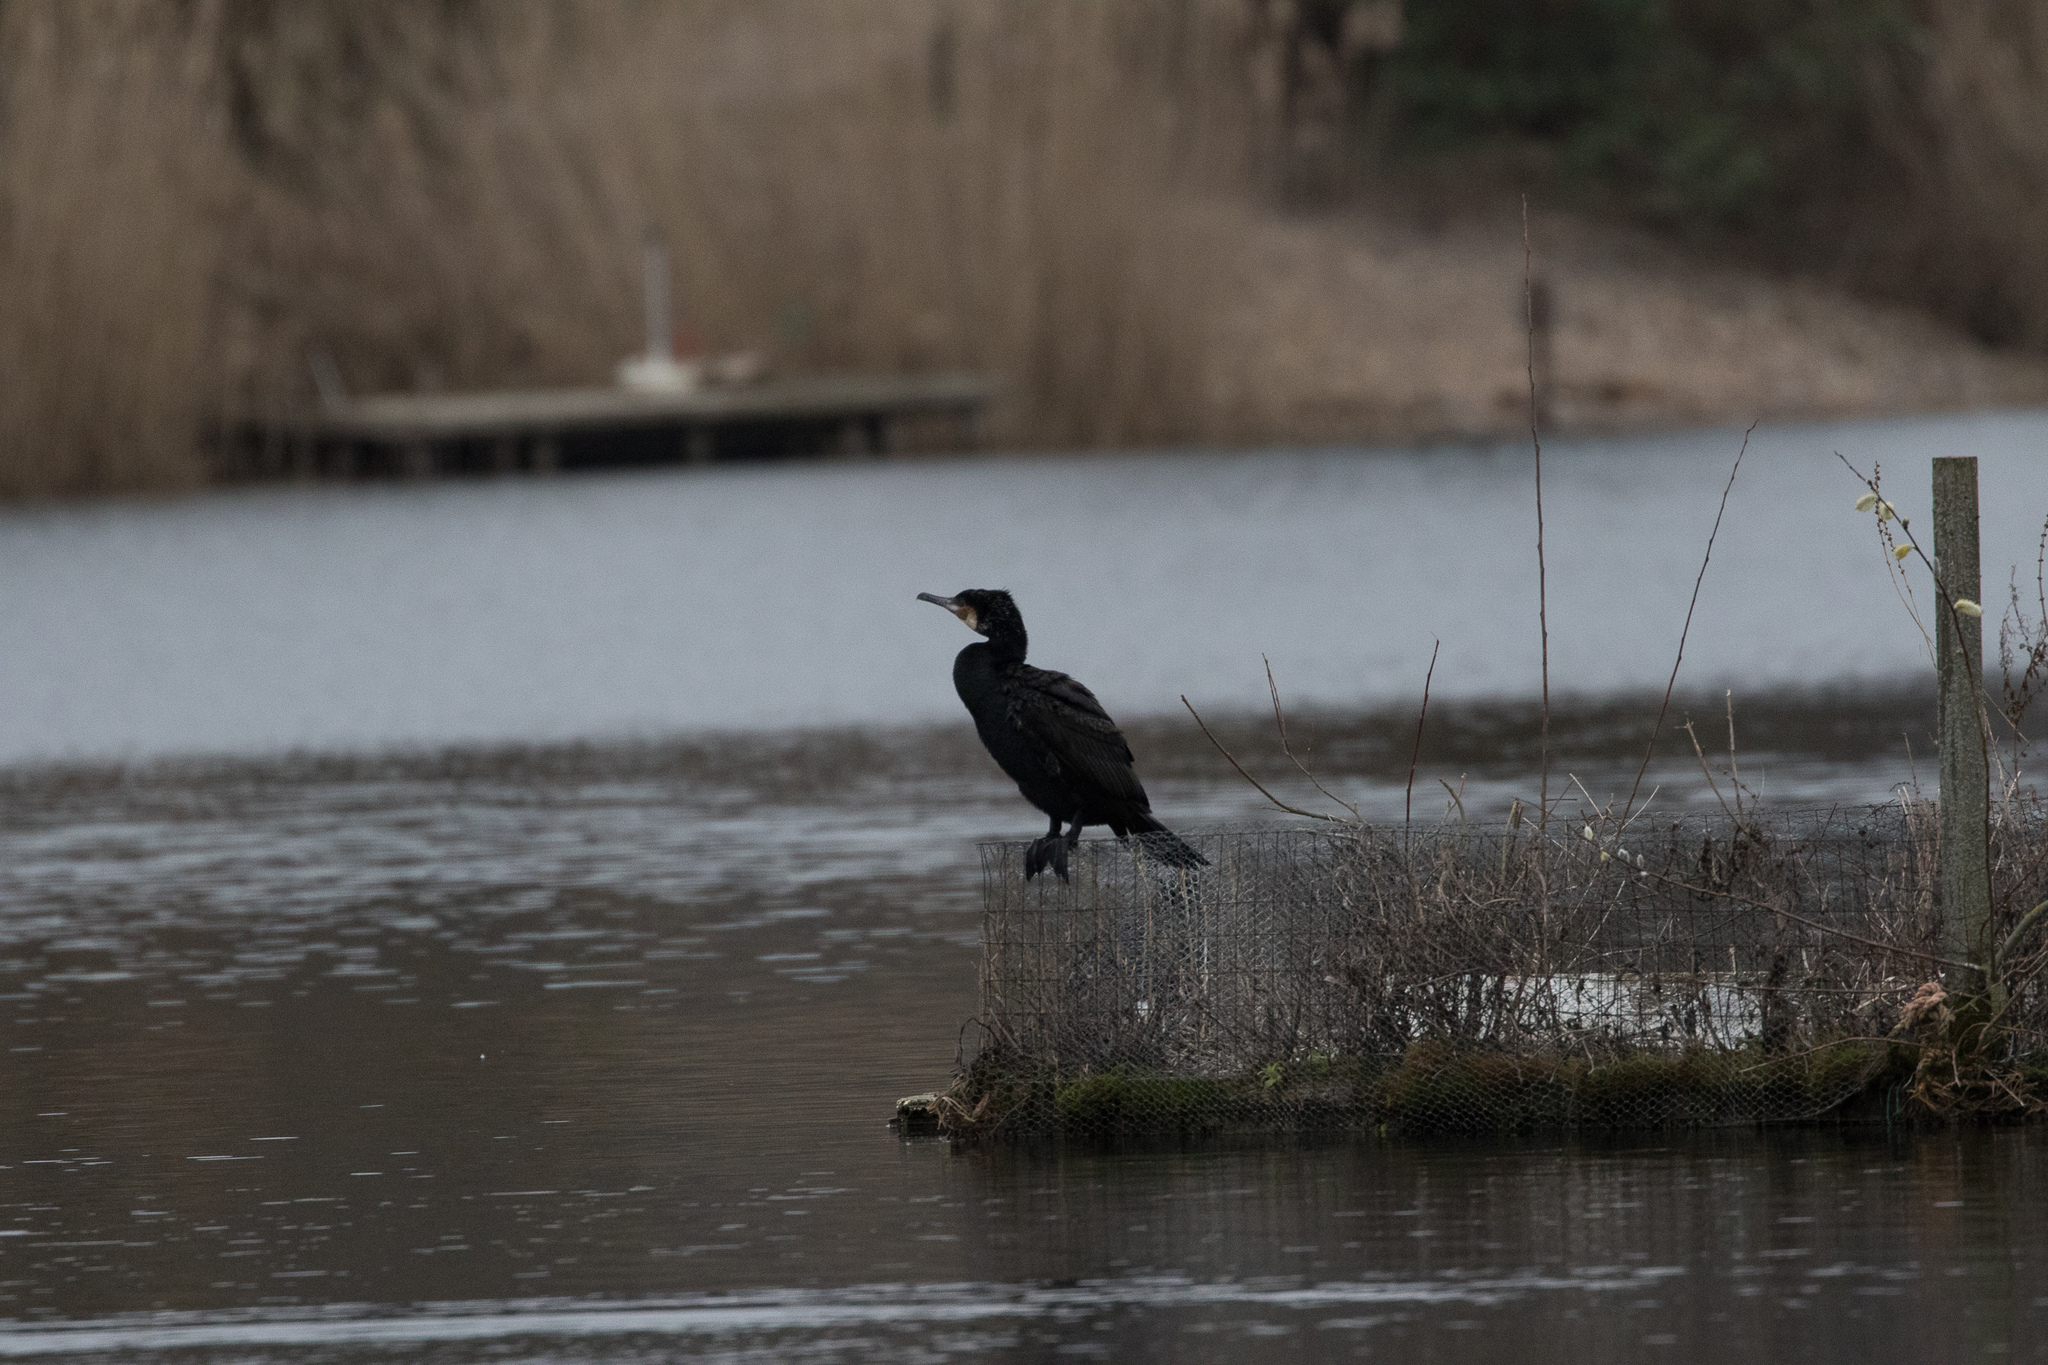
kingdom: Animalia
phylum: Chordata
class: Aves
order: Suliformes
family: Phalacrocoracidae
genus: Phalacrocorax
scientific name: Phalacrocorax carbo
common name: Great cormorant
